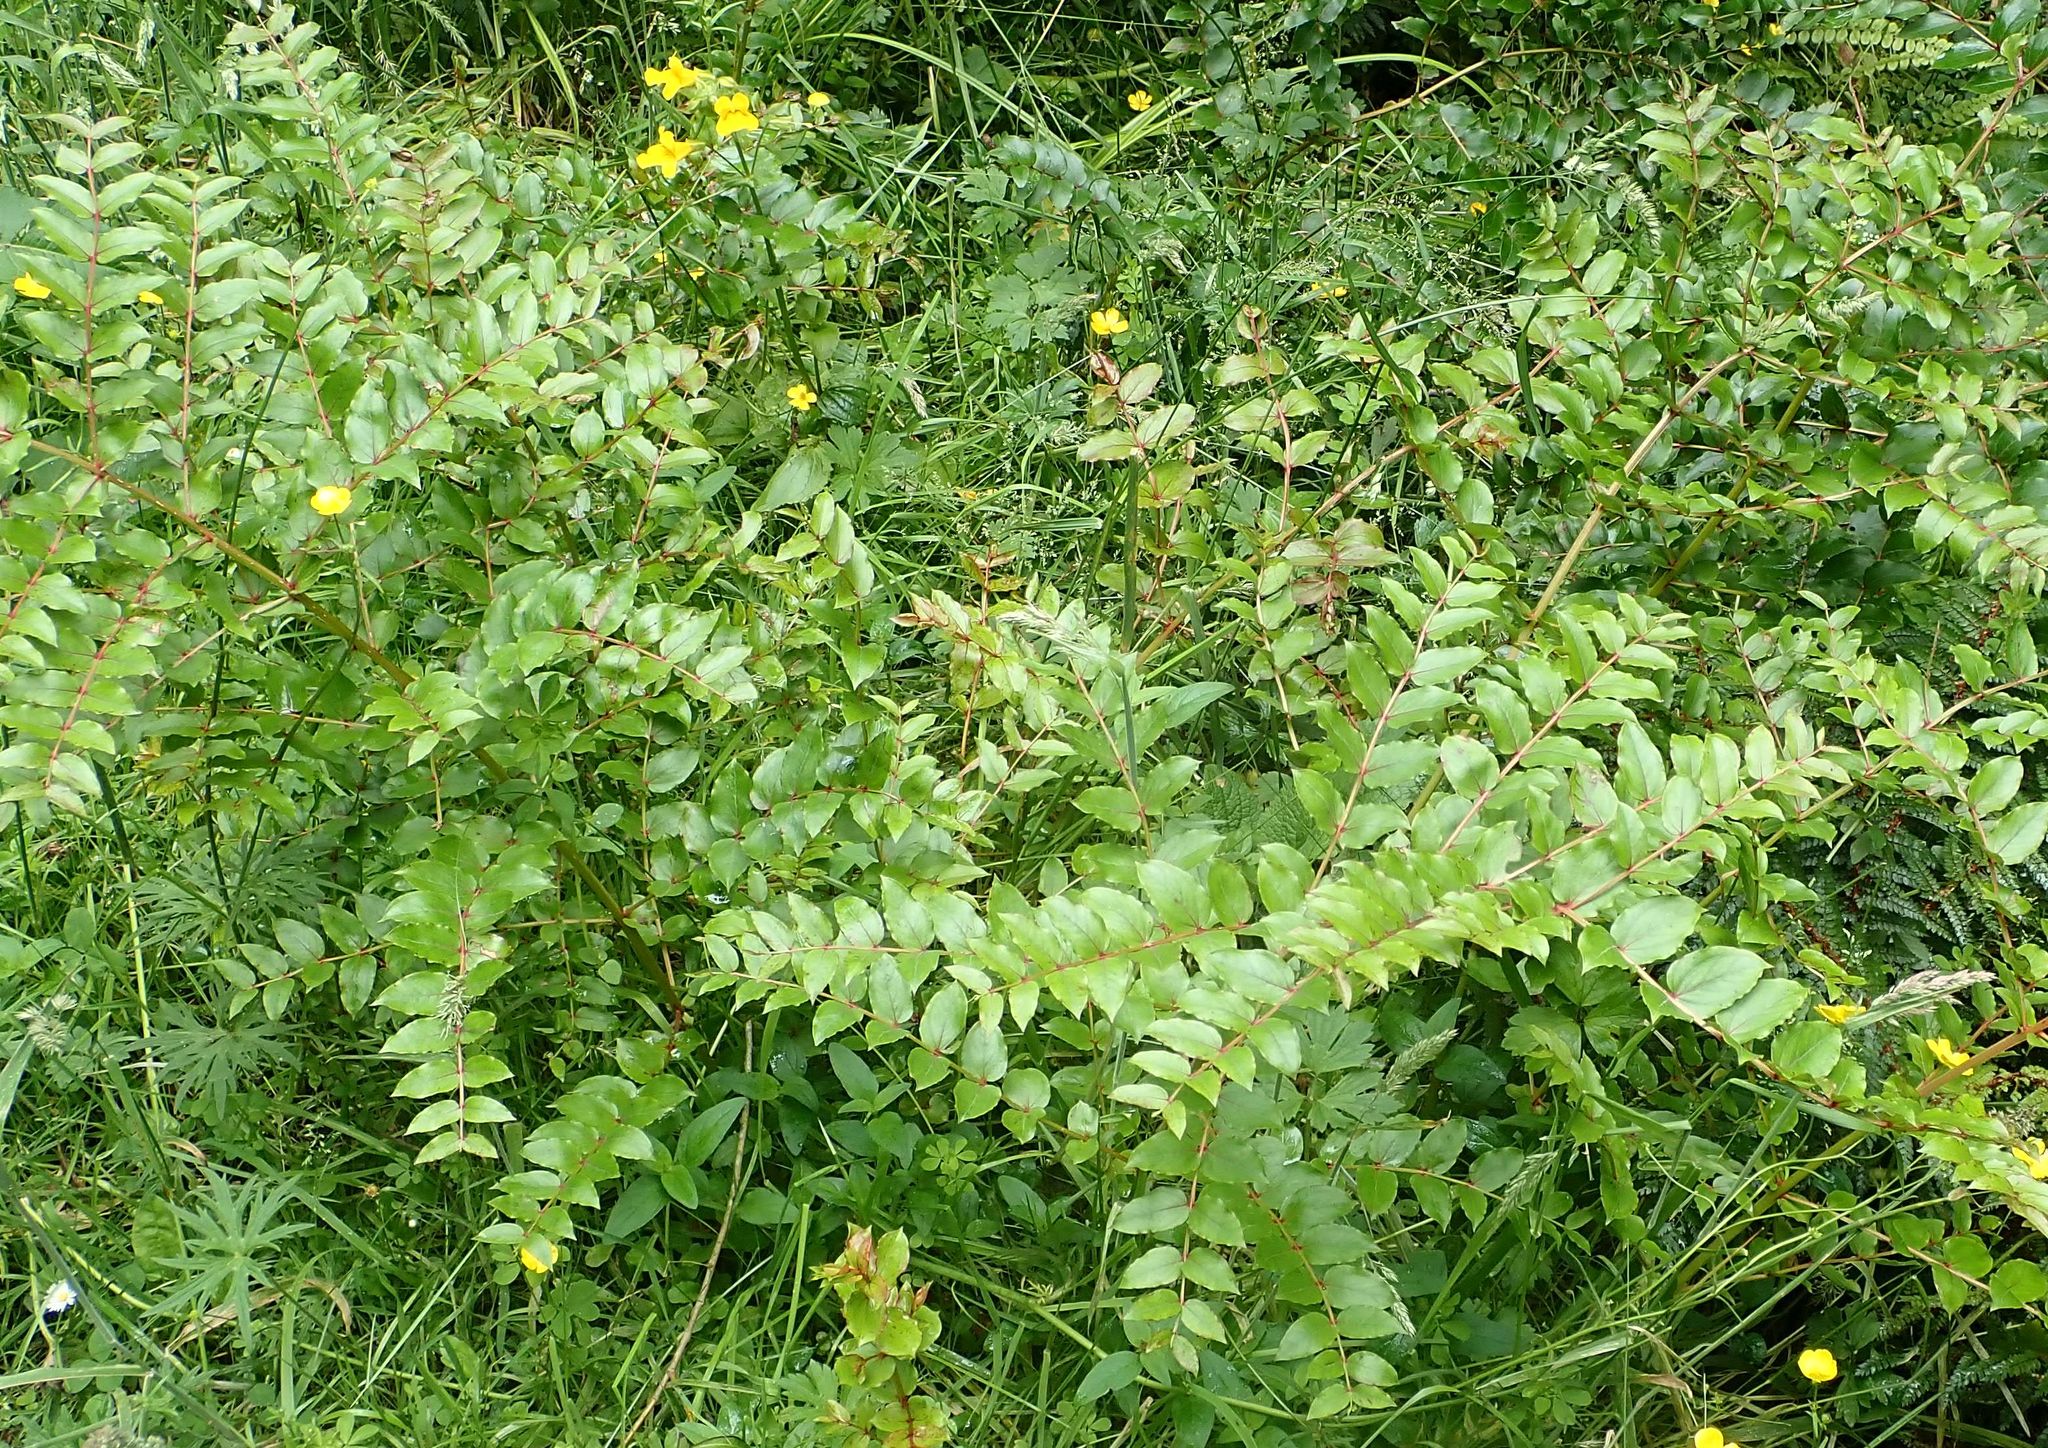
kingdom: Plantae
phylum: Tracheophyta
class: Magnoliopsida
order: Cucurbitales
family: Coriariaceae
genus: Coriaria
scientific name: Coriaria sarmentosa
